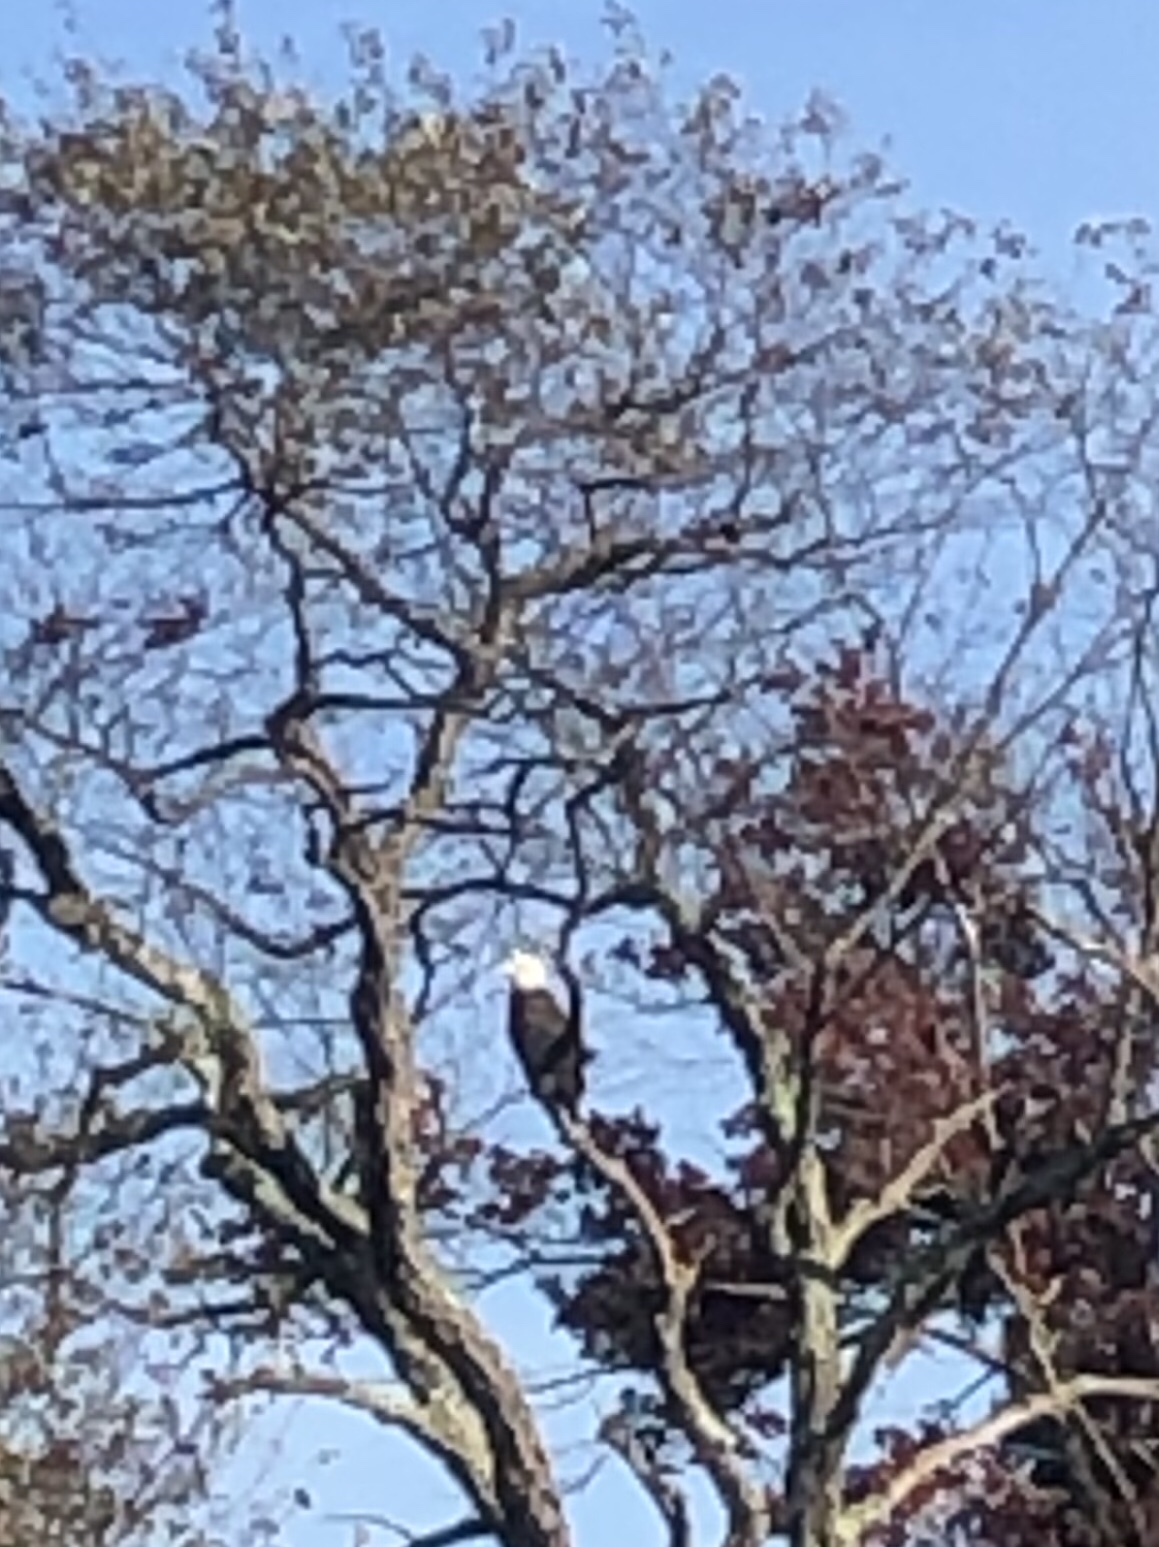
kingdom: Animalia
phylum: Chordata
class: Aves
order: Accipitriformes
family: Accipitridae
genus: Haliaeetus
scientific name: Haliaeetus leucocephalus
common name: Bald eagle
